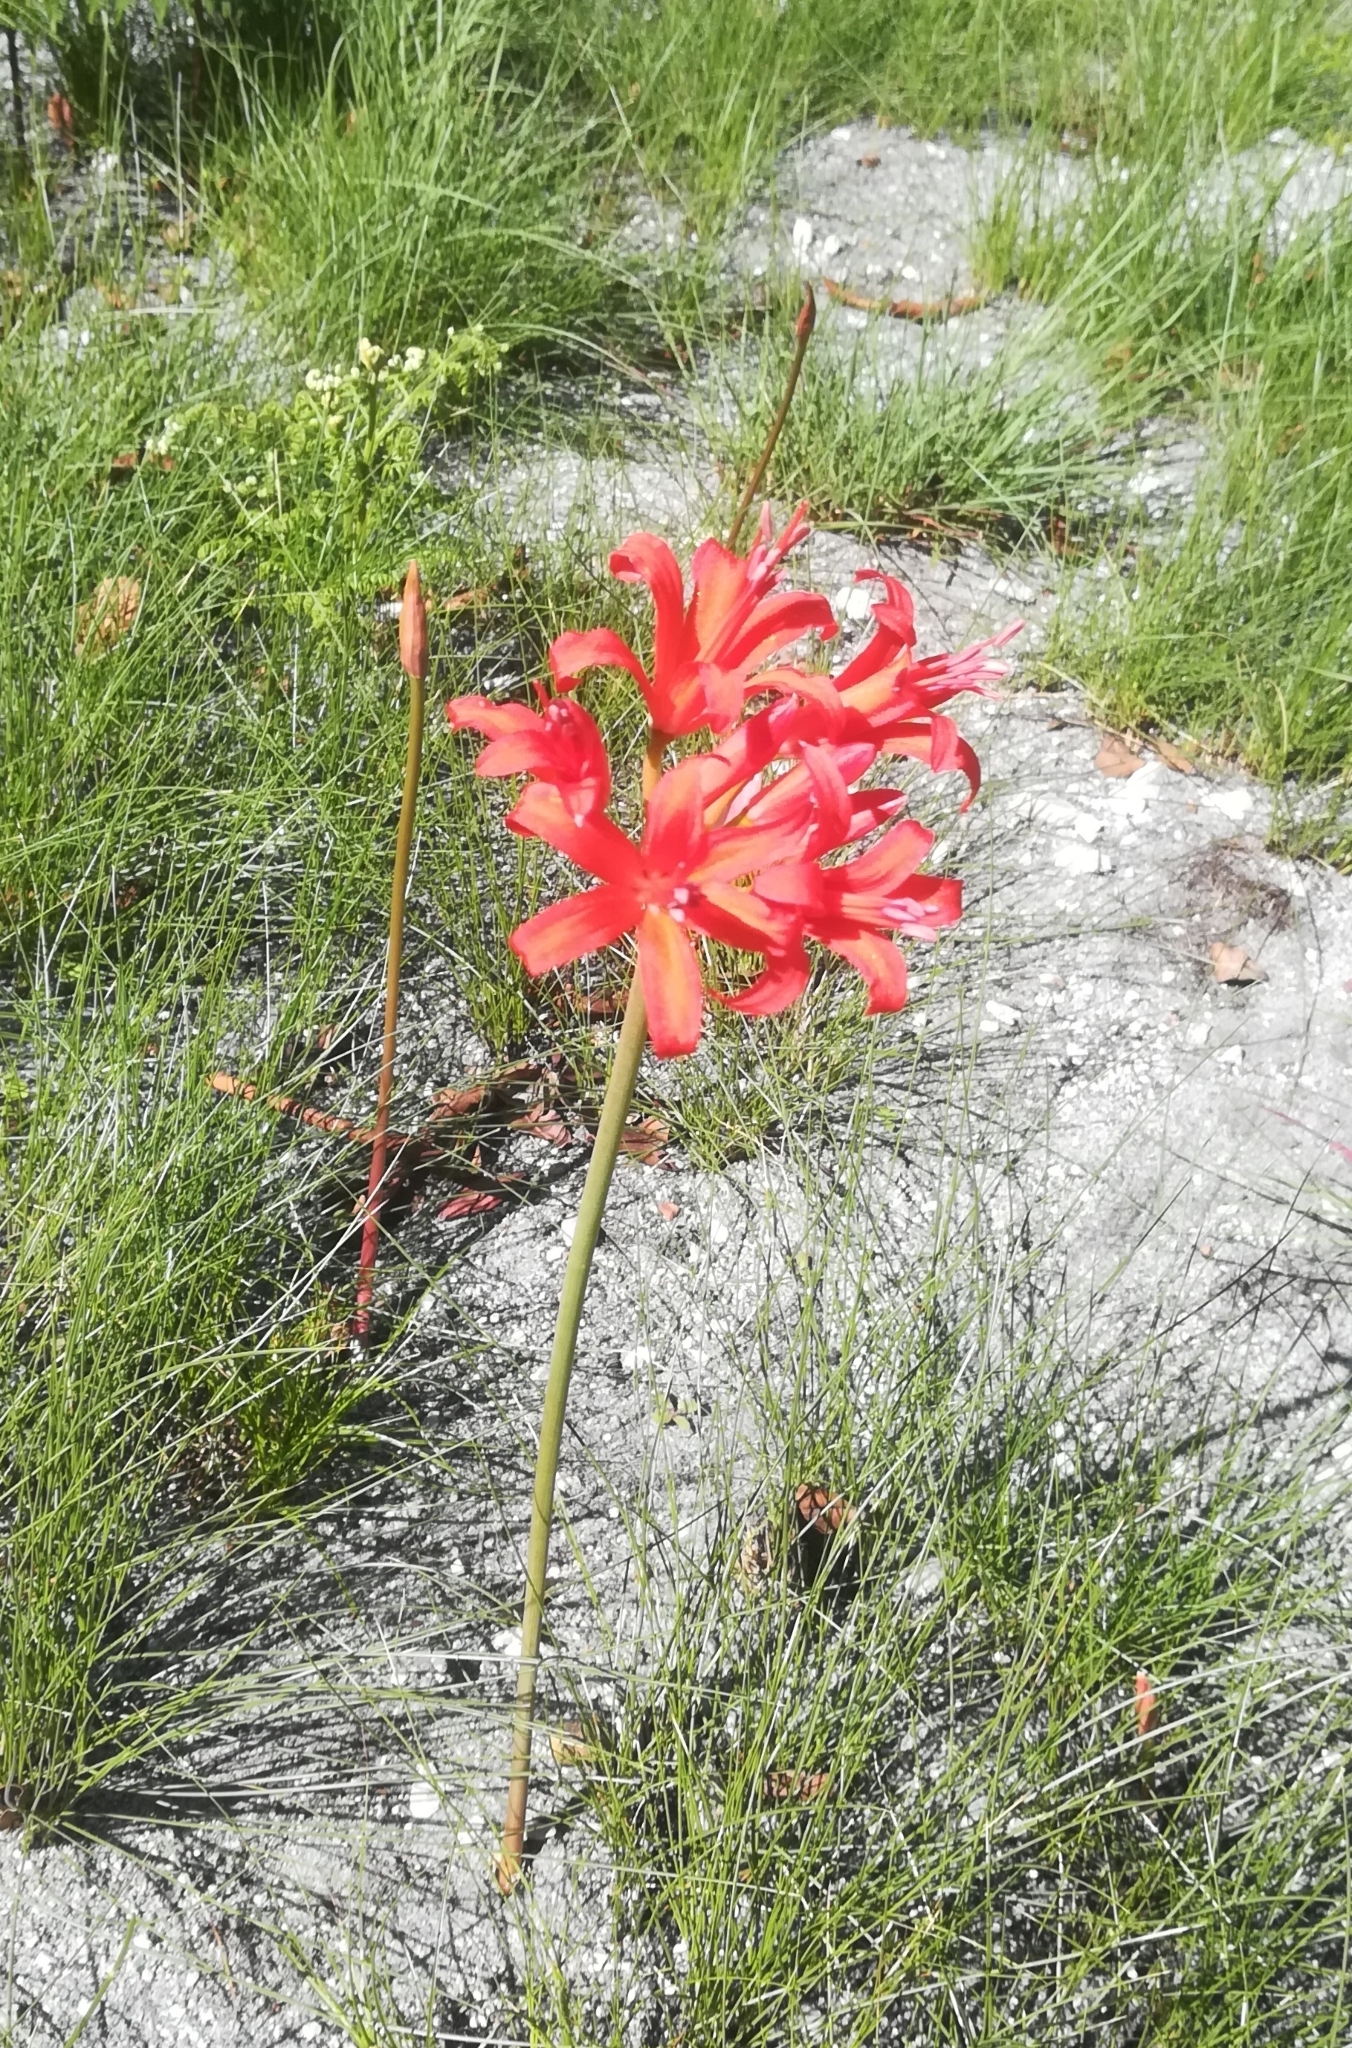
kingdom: Plantae
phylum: Tracheophyta
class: Liliopsida
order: Asparagales
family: Amaryllidaceae
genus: Nerine
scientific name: Nerine sarniensis
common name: Guernsey-lily
